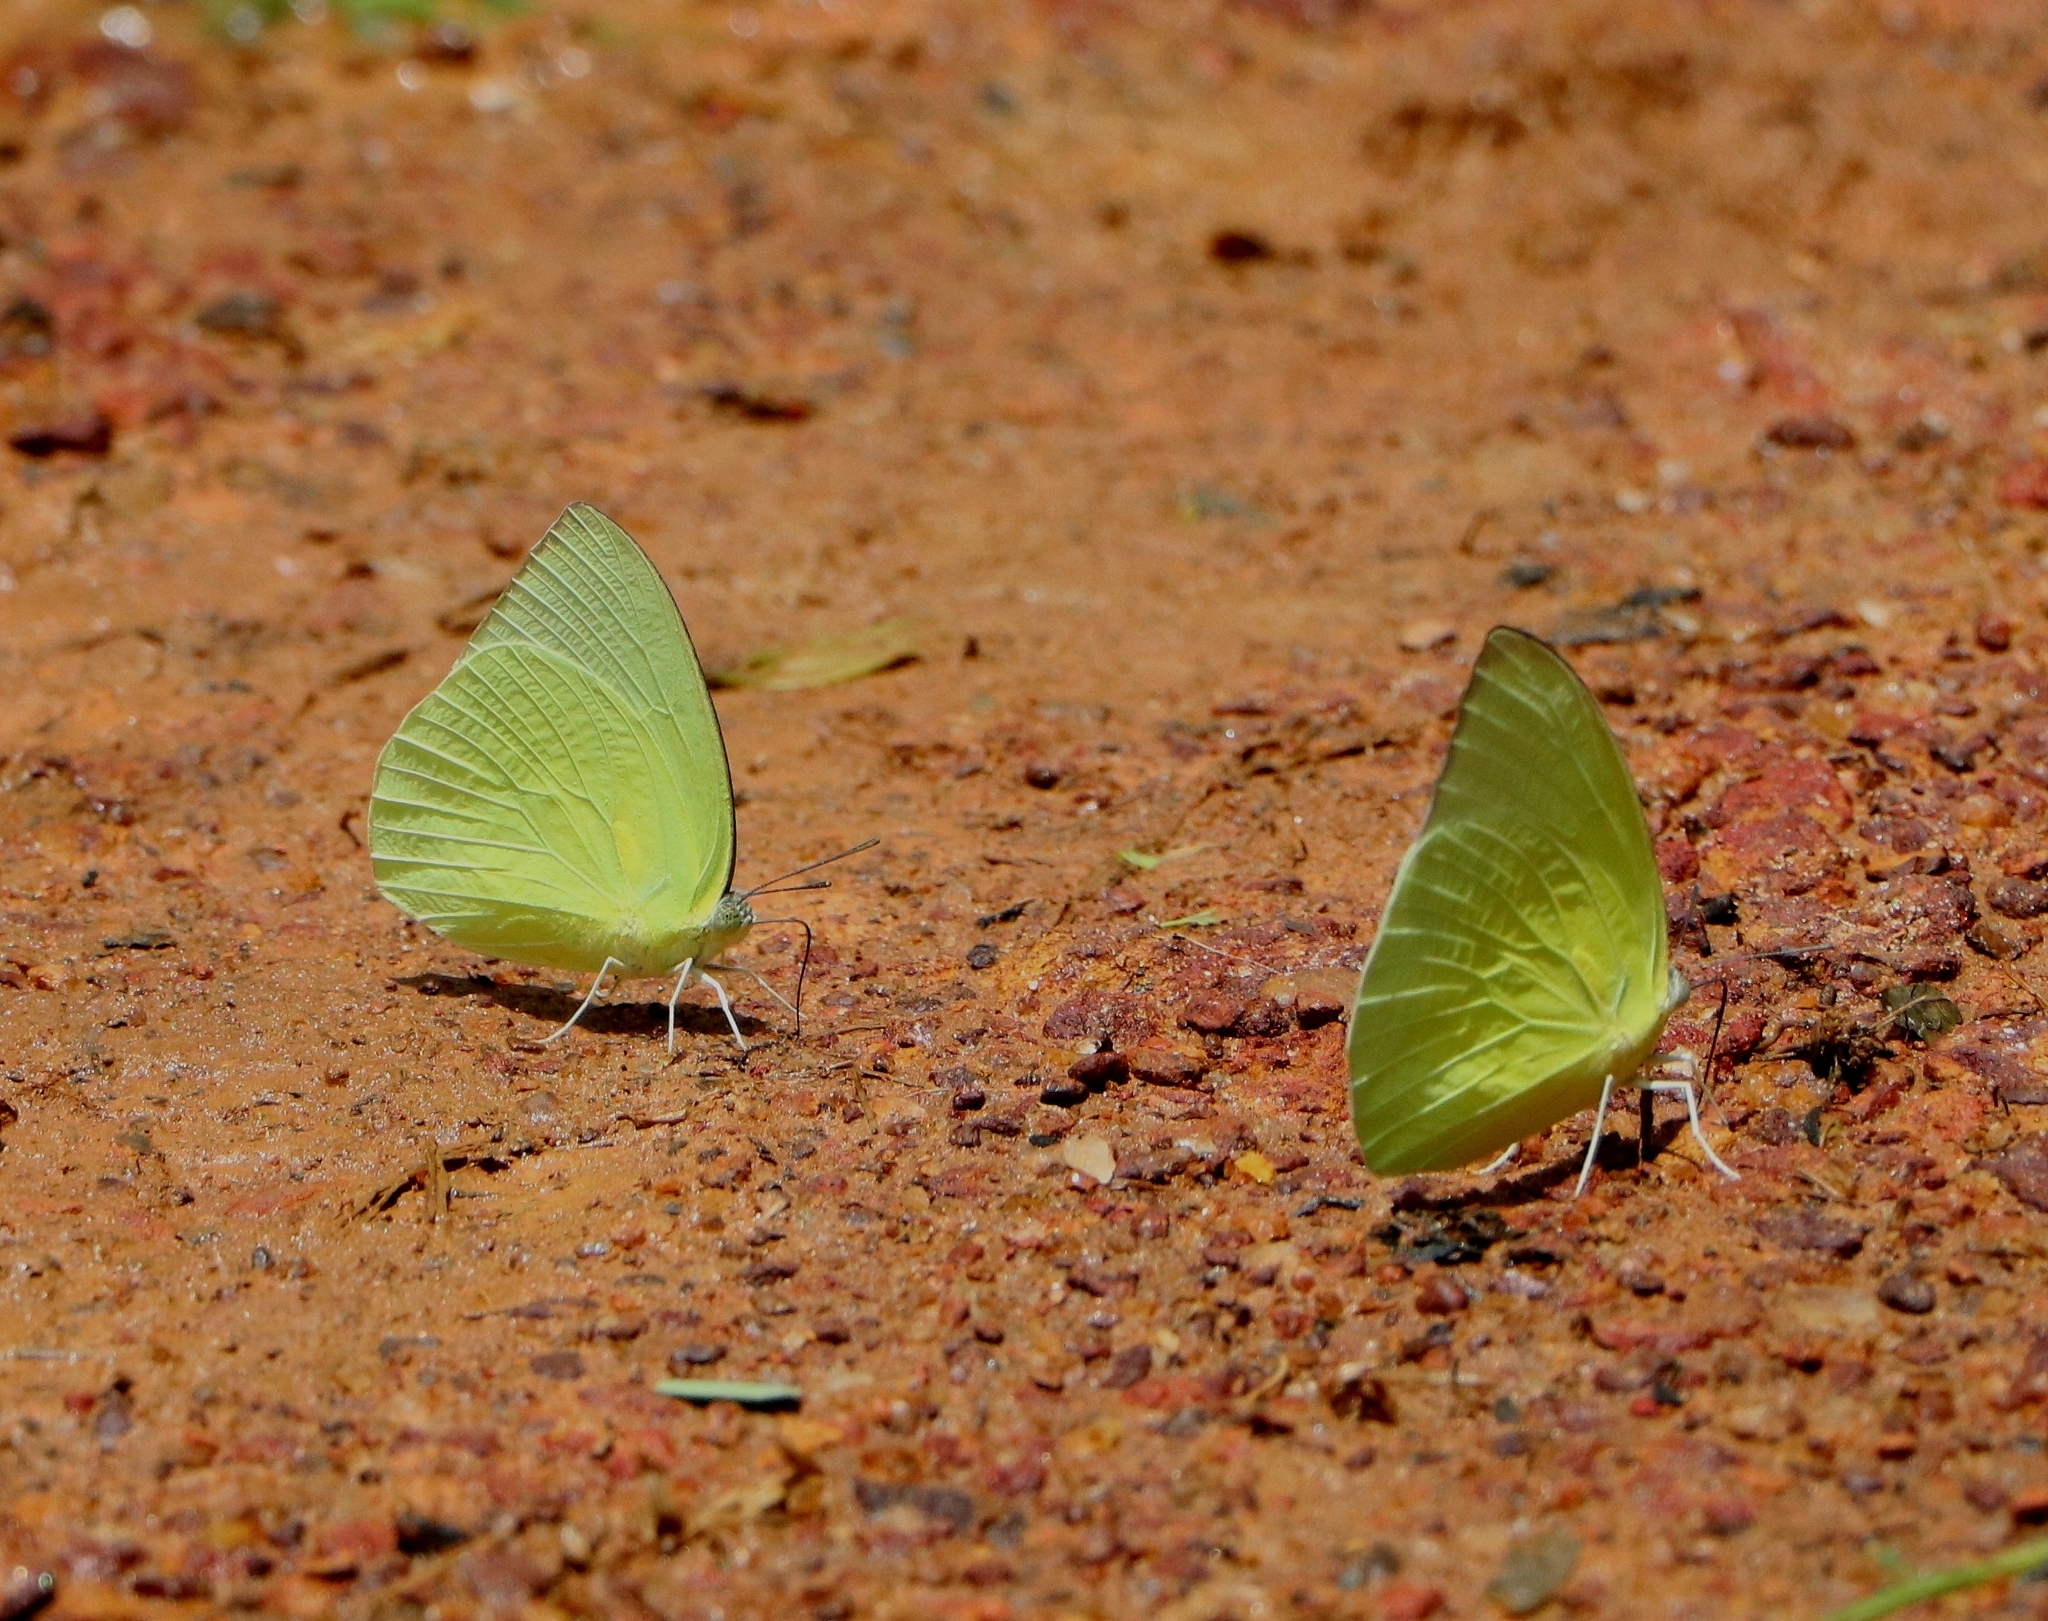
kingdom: Animalia
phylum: Arthropoda
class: Insecta
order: Lepidoptera
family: Pieridae
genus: Catopsilia
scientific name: Catopsilia pomona
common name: Common emigrant
